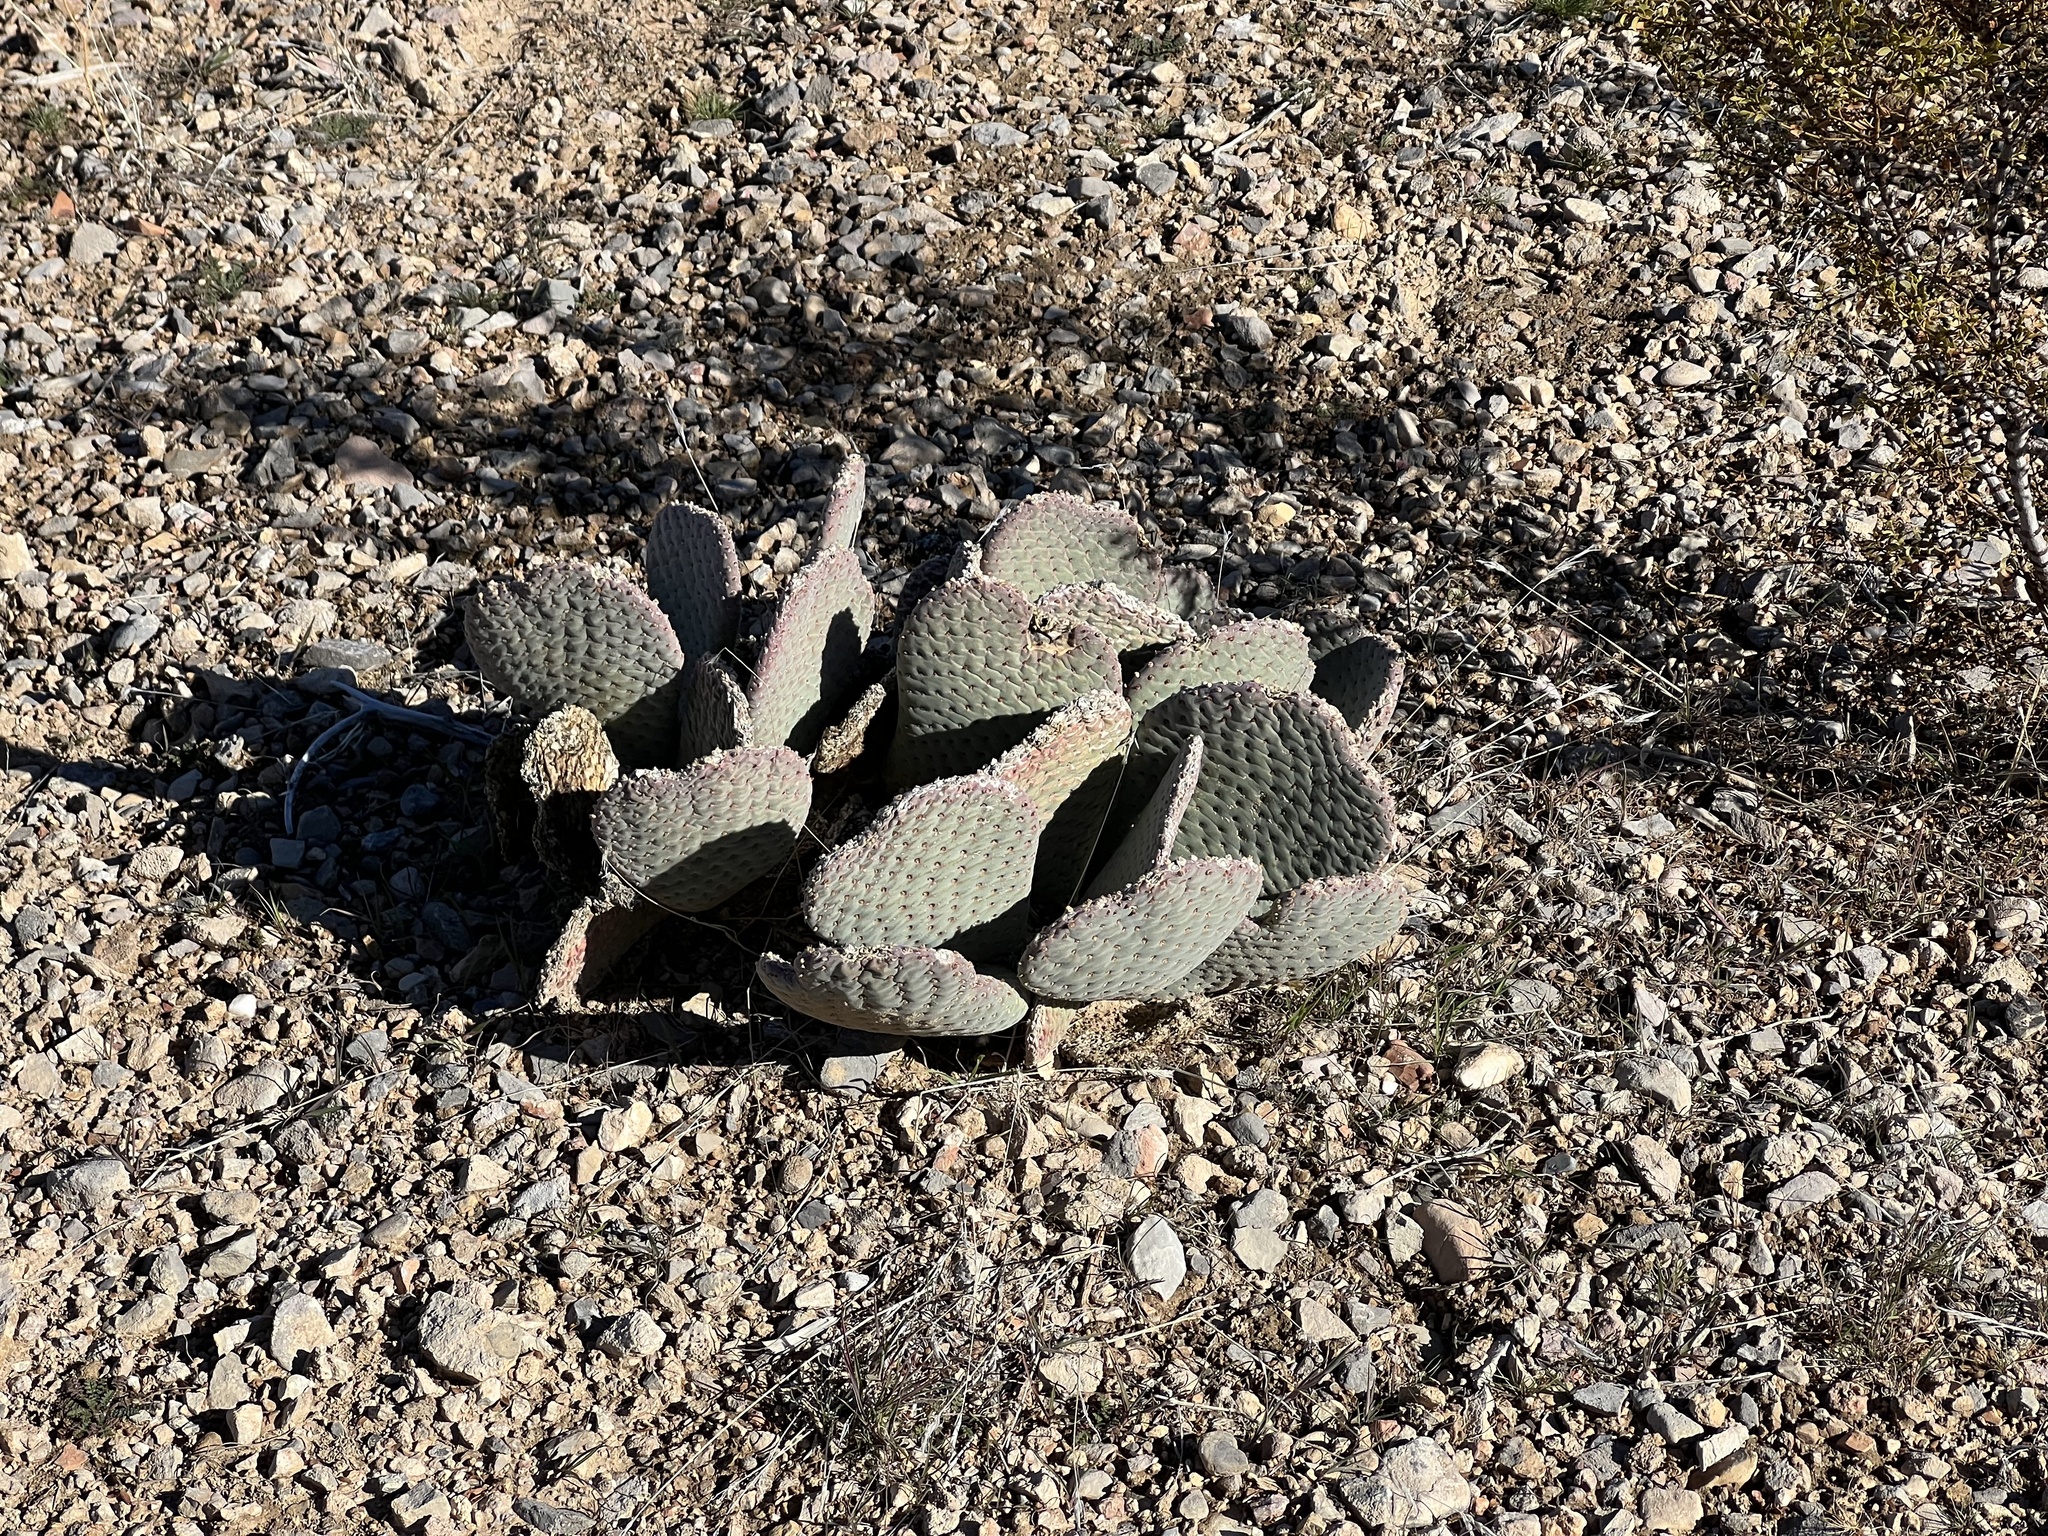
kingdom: Plantae
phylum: Tracheophyta
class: Magnoliopsida
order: Caryophyllales
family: Cactaceae
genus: Opuntia
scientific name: Opuntia basilaris
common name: Beavertail prickly-pear
